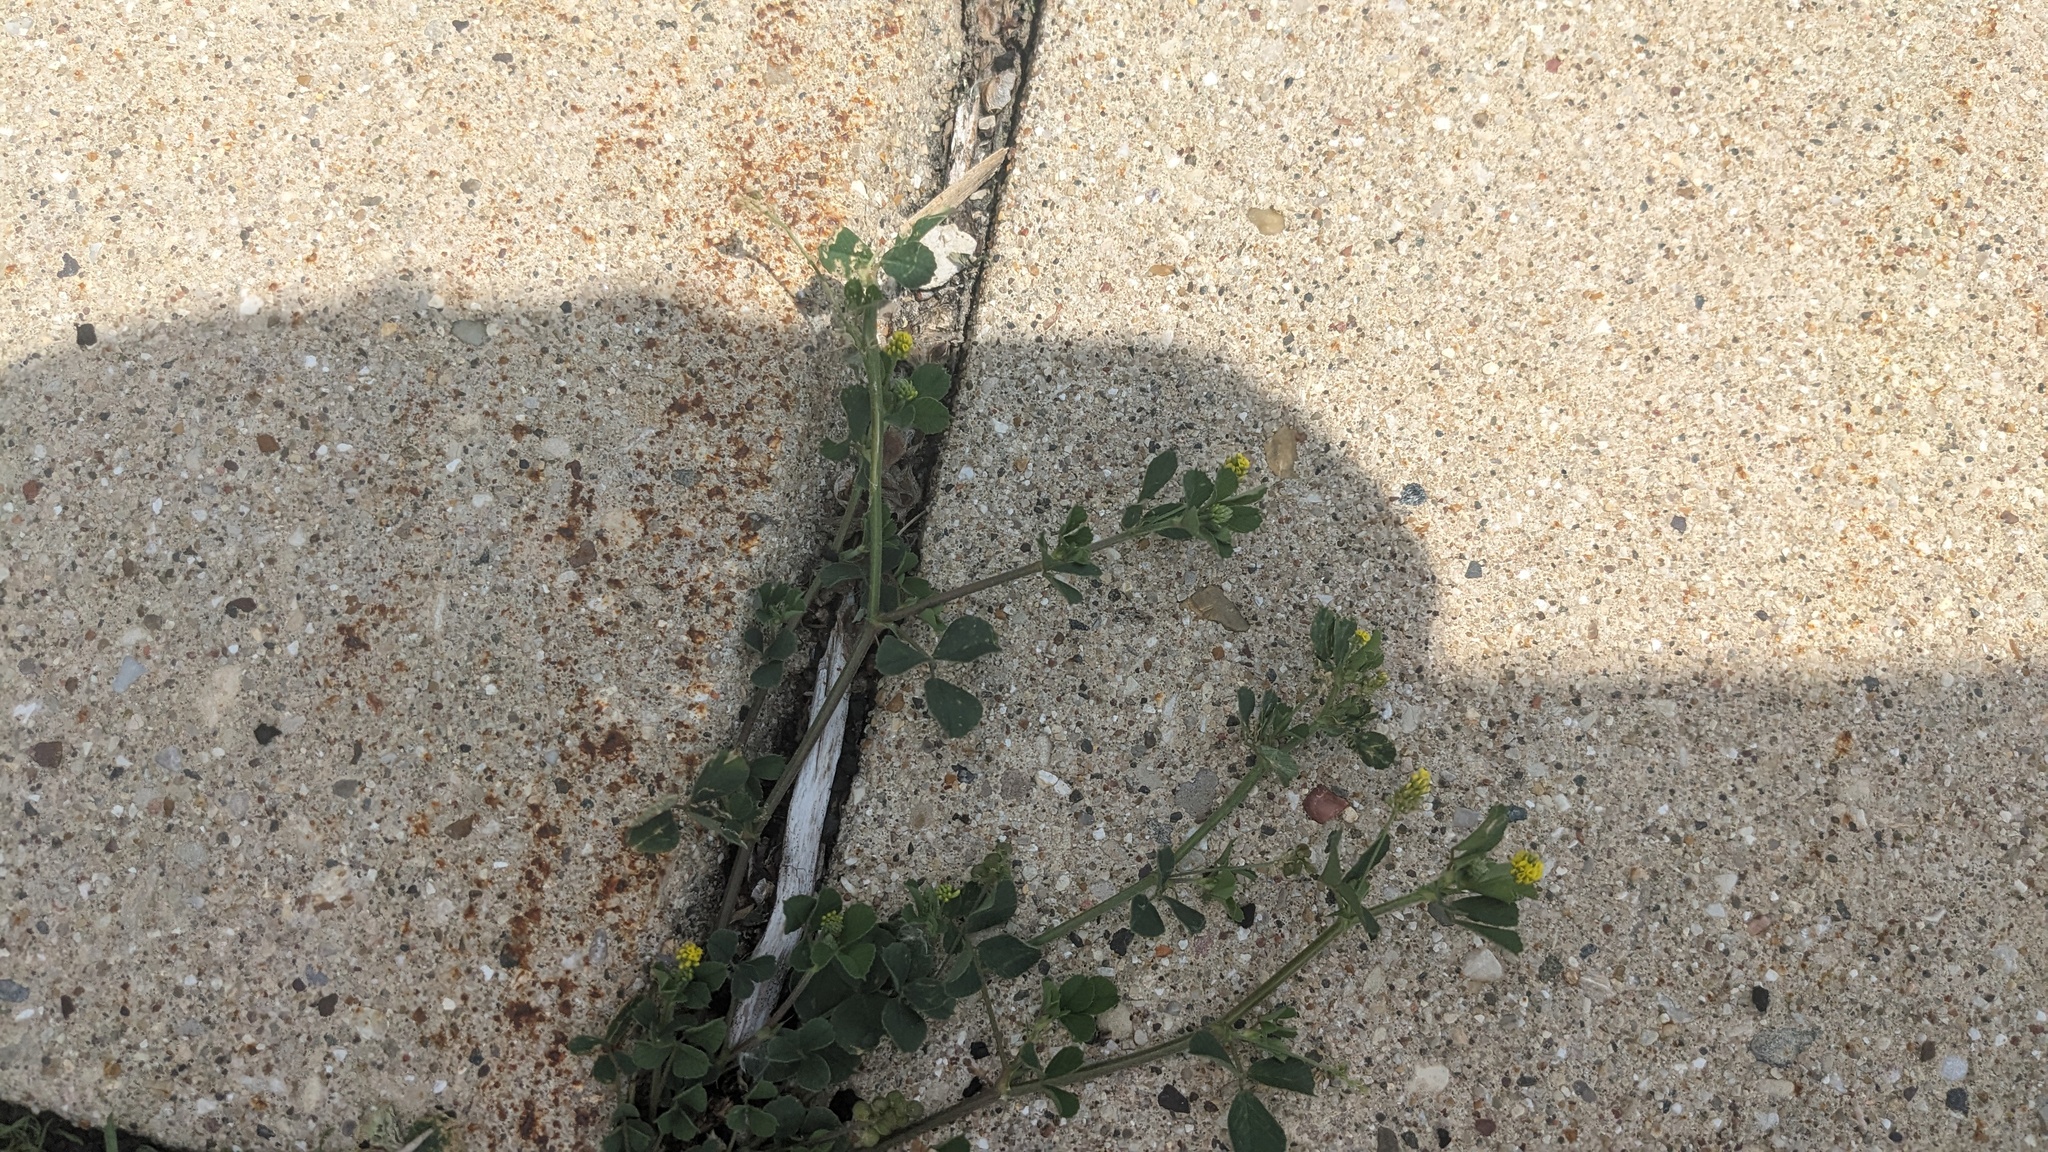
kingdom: Plantae
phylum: Tracheophyta
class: Magnoliopsida
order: Fabales
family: Fabaceae
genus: Medicago
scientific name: Medicago lupulina
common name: Black medick
